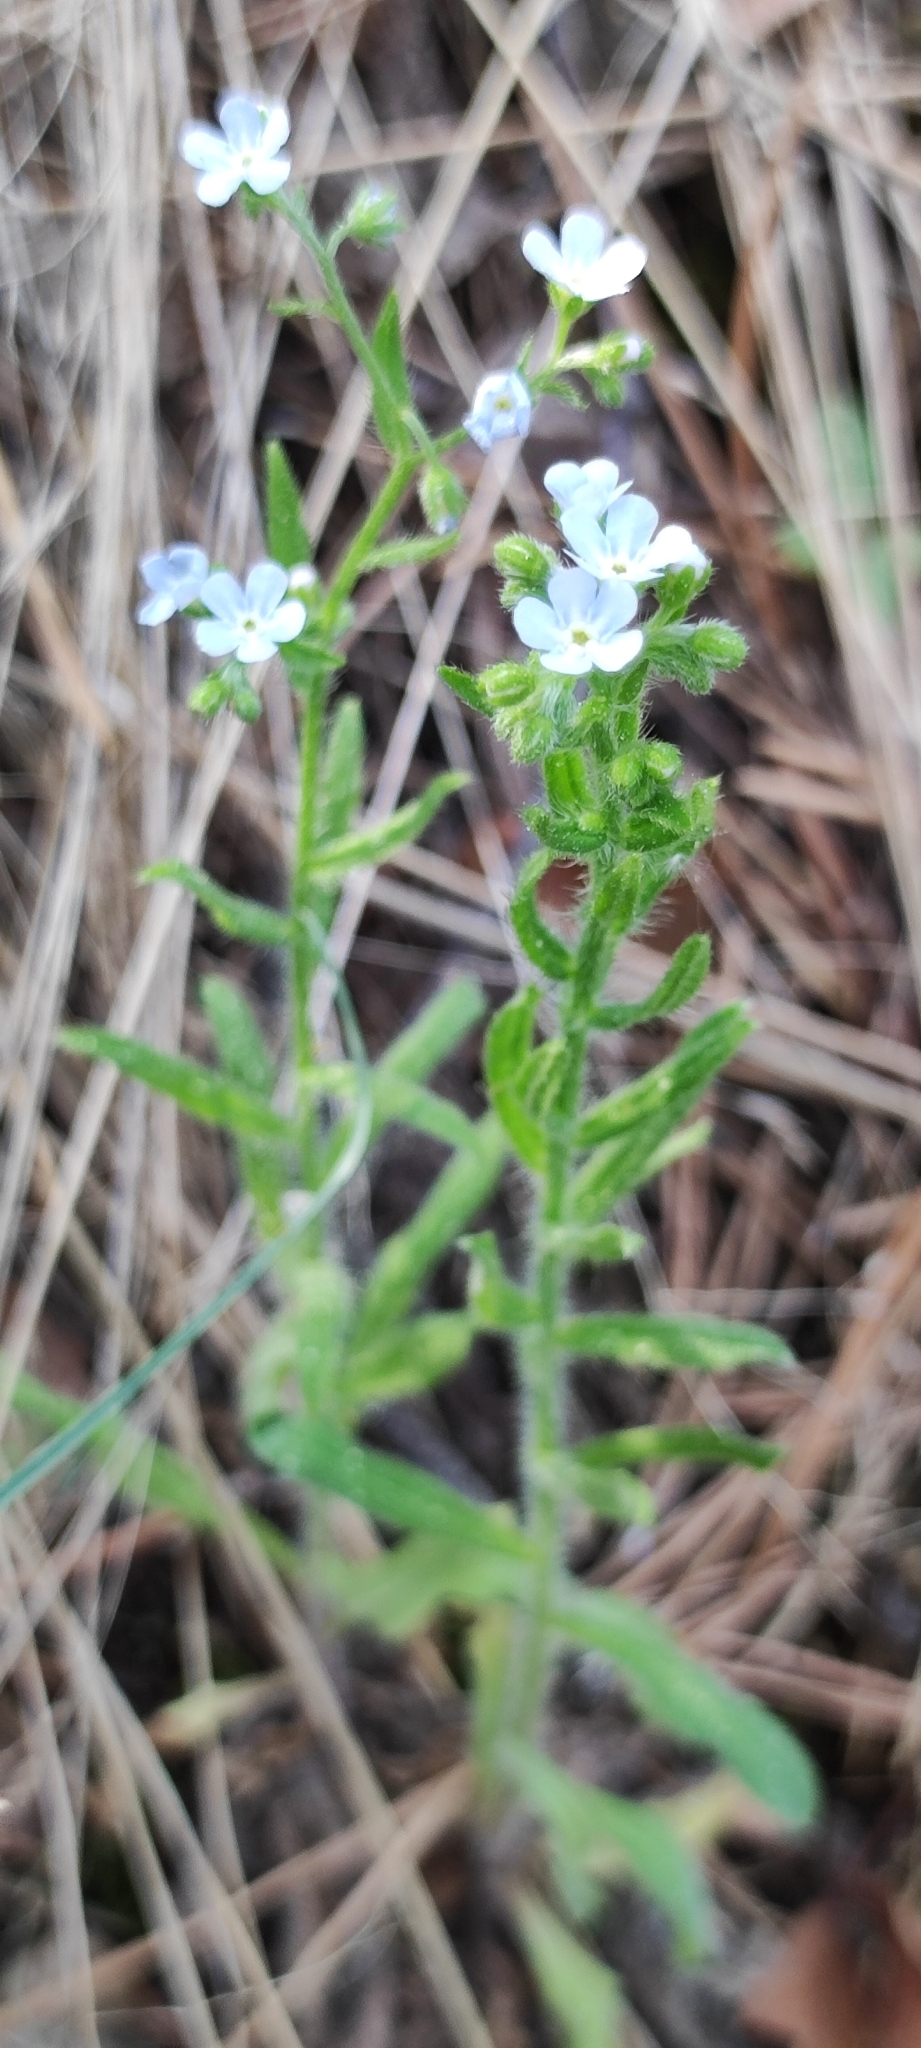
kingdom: Plantae
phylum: Tracheophyta
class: Magnoliopsida
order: Boraginales
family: Boraginaceae
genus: Lappula
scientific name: Lappula squarrosa
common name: European stickseed
